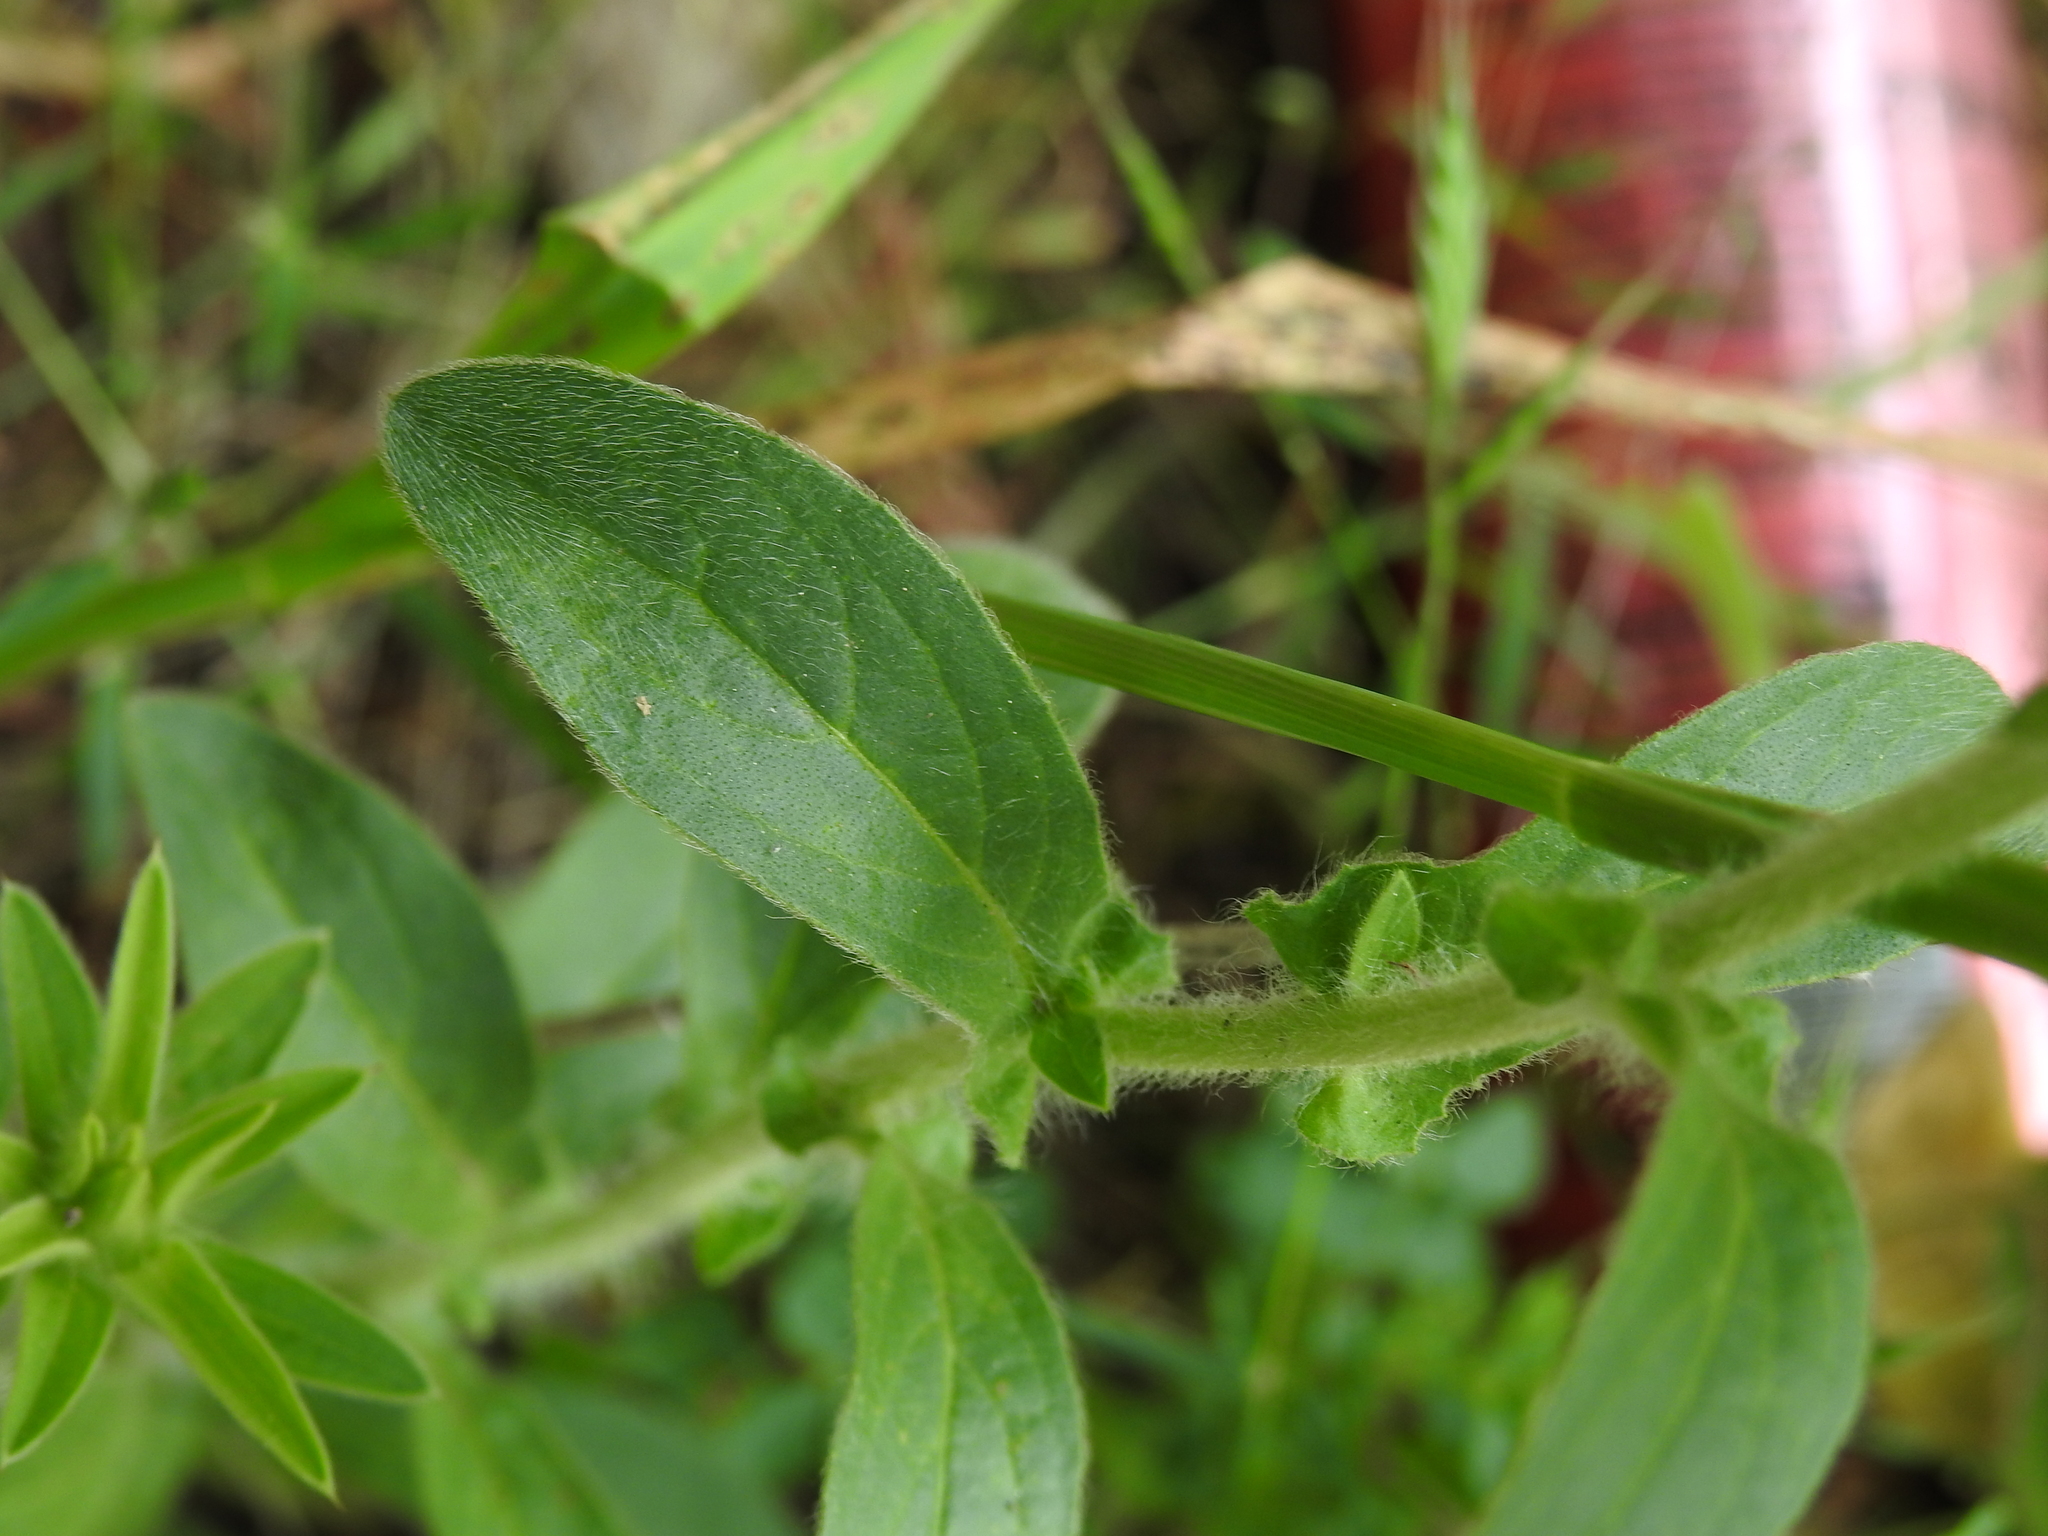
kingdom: Plantae
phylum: Tracheophyta
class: Magnoliopsida
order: Asterales
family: Asteraceae
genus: Pallenis
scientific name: Pallenis spinosa
